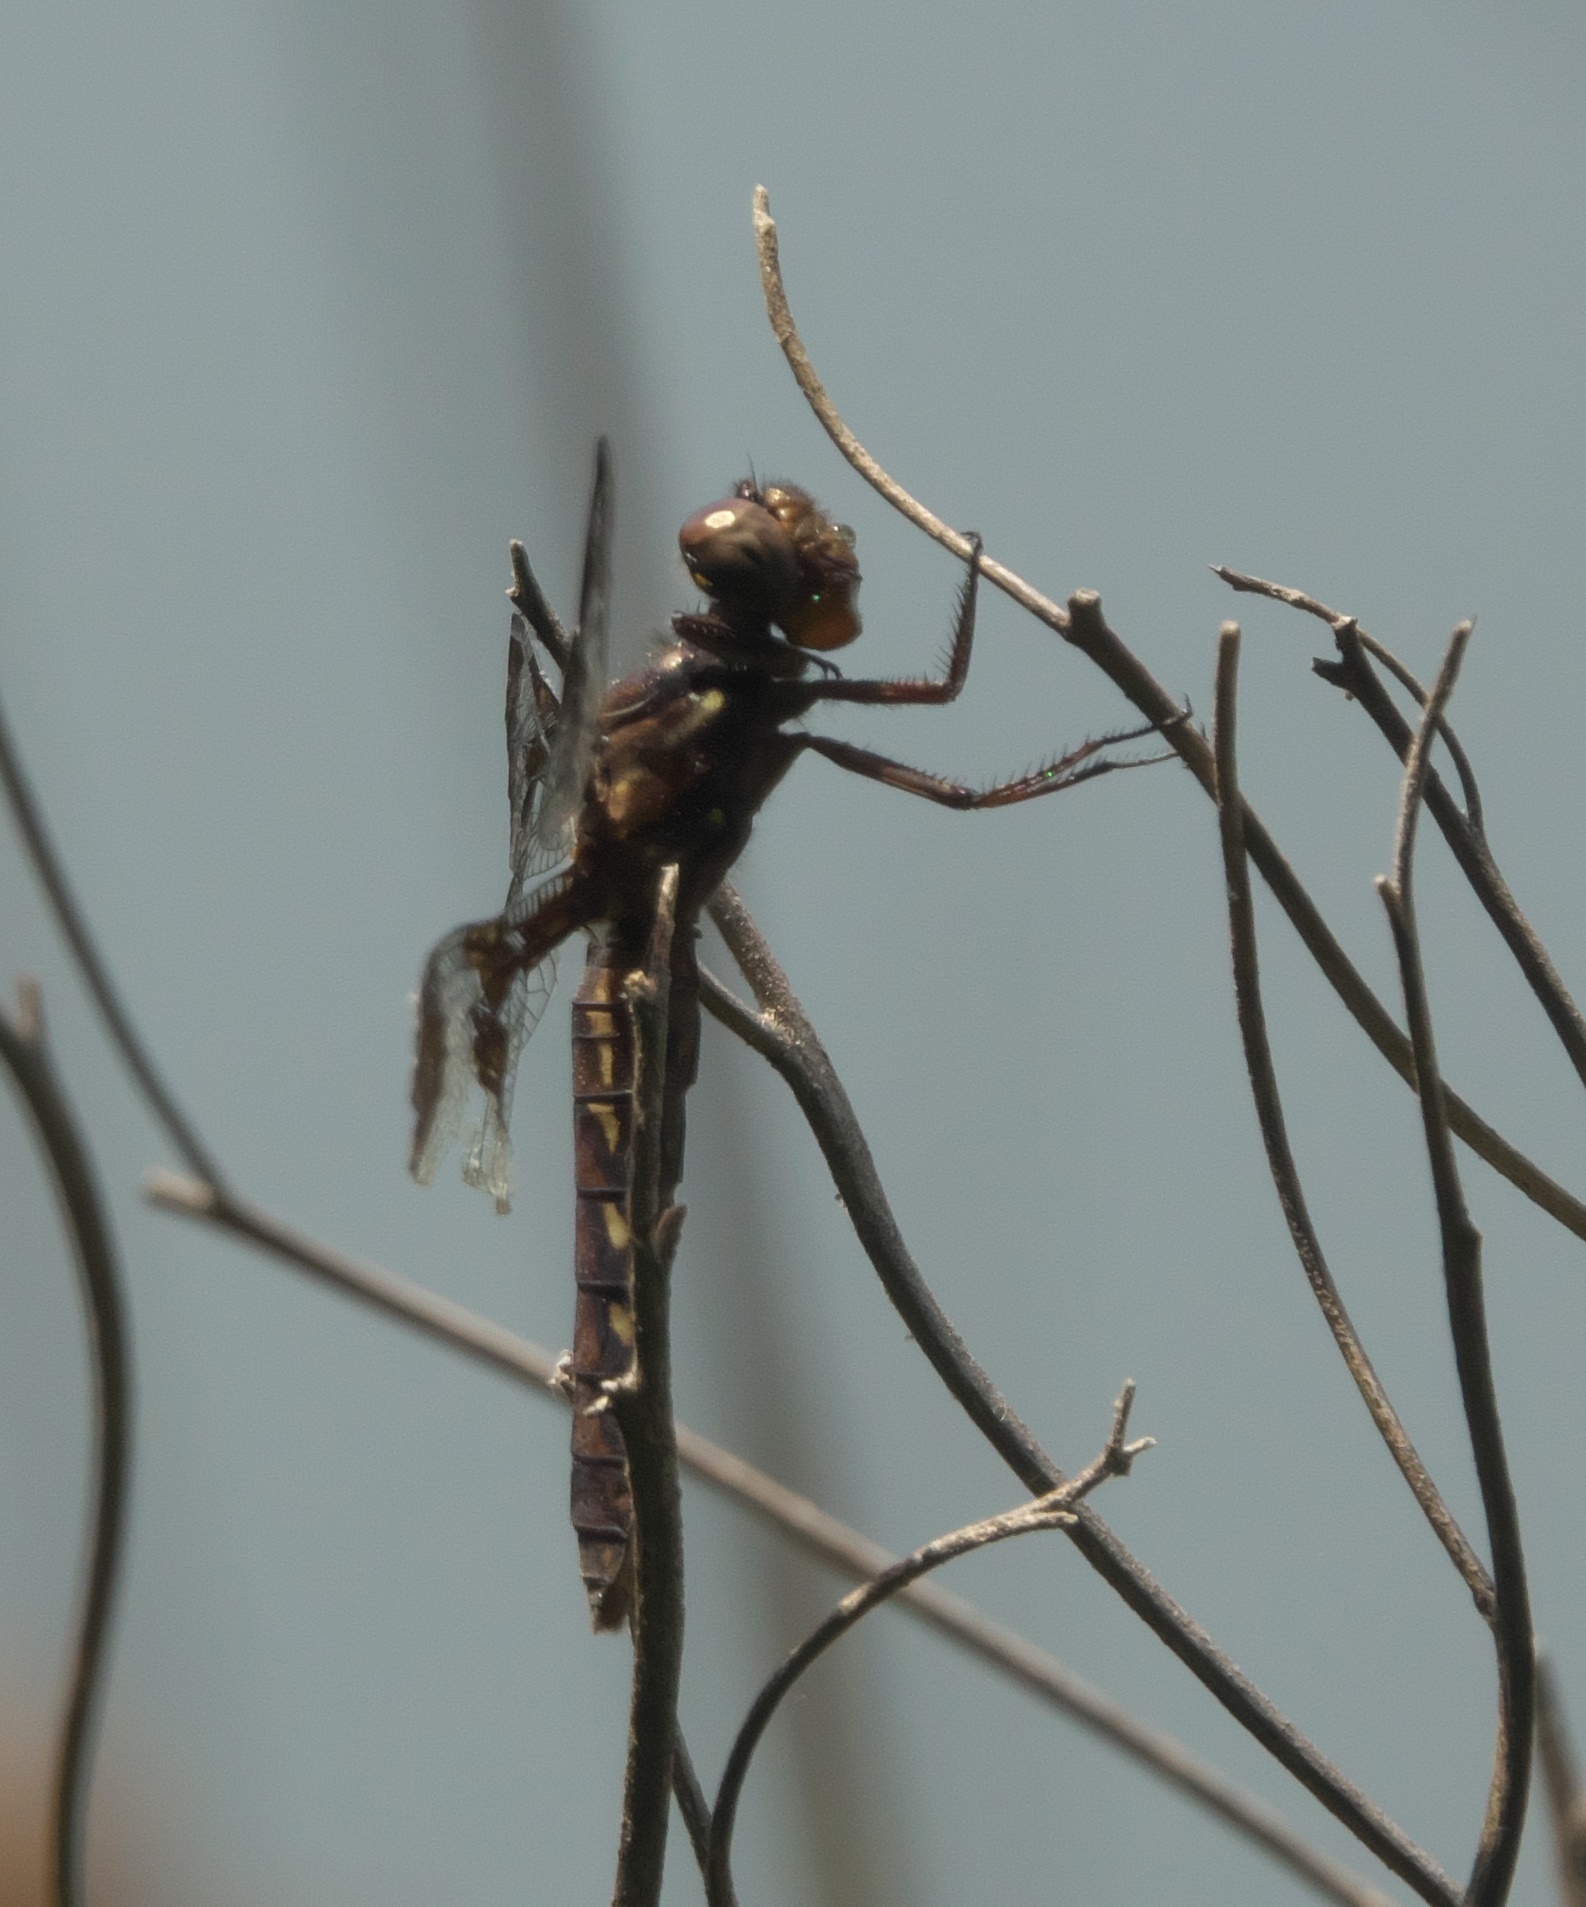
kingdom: Animalia
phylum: Arthropoda
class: Insecta
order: Odonata
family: Libellulidae
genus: Plathemis
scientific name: Plathemis lydia
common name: Common whitetail
